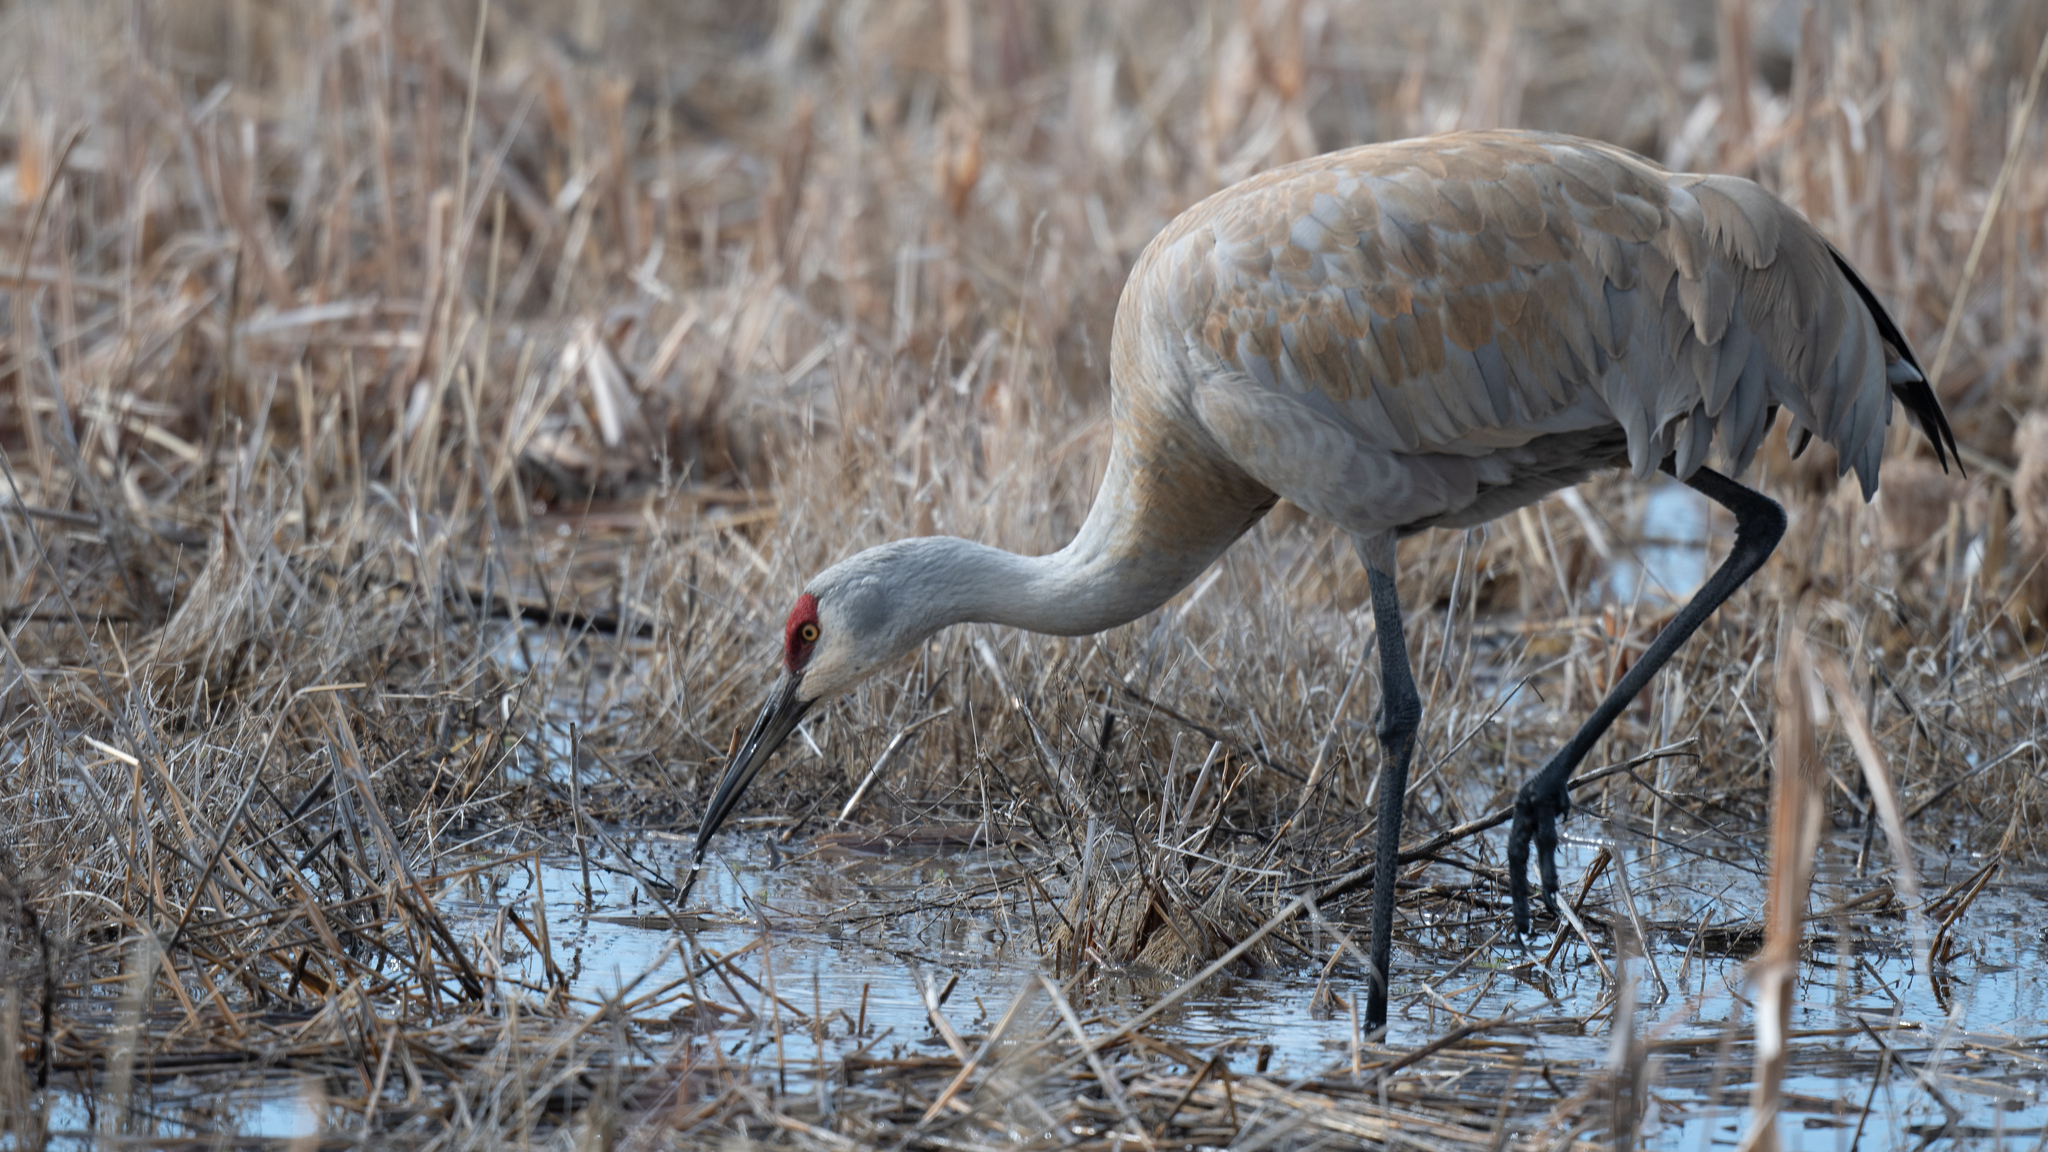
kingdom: Animalia
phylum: Chordata
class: Aves
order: Gruiformes
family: Gruidae
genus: Grus
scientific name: Grus canadensis
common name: Sandhill crane
